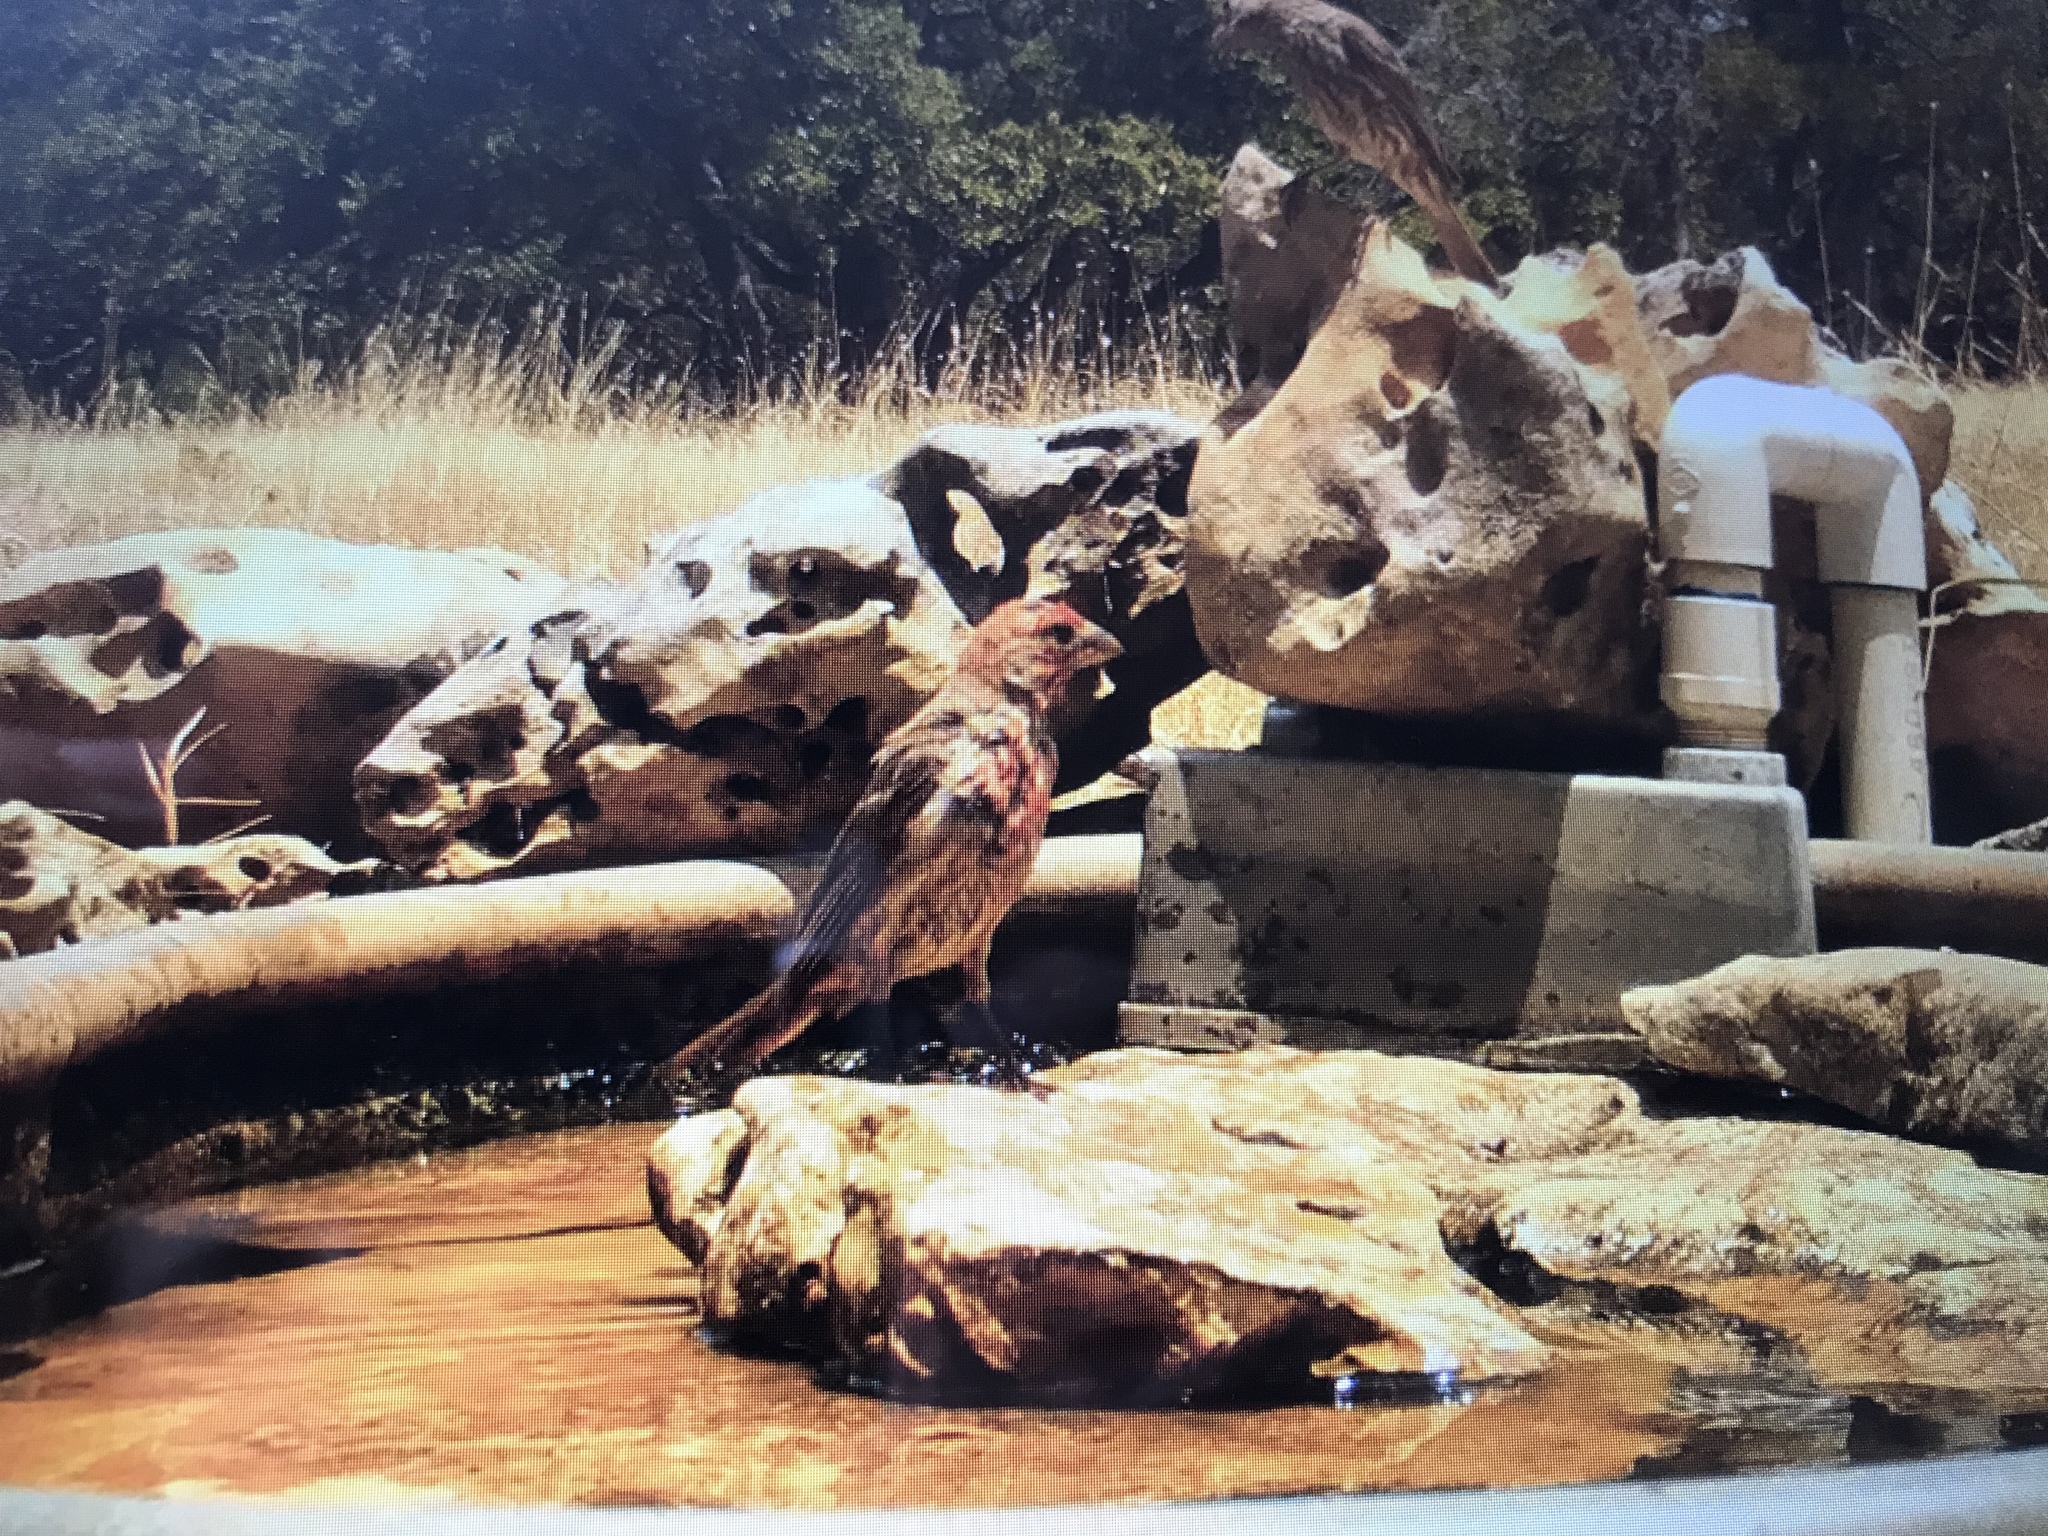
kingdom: Animalia
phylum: Chordata
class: Aves
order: Passeriformes
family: Fringillidae
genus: Haemorhous
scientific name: Haemorhous mexicanus
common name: House finch
